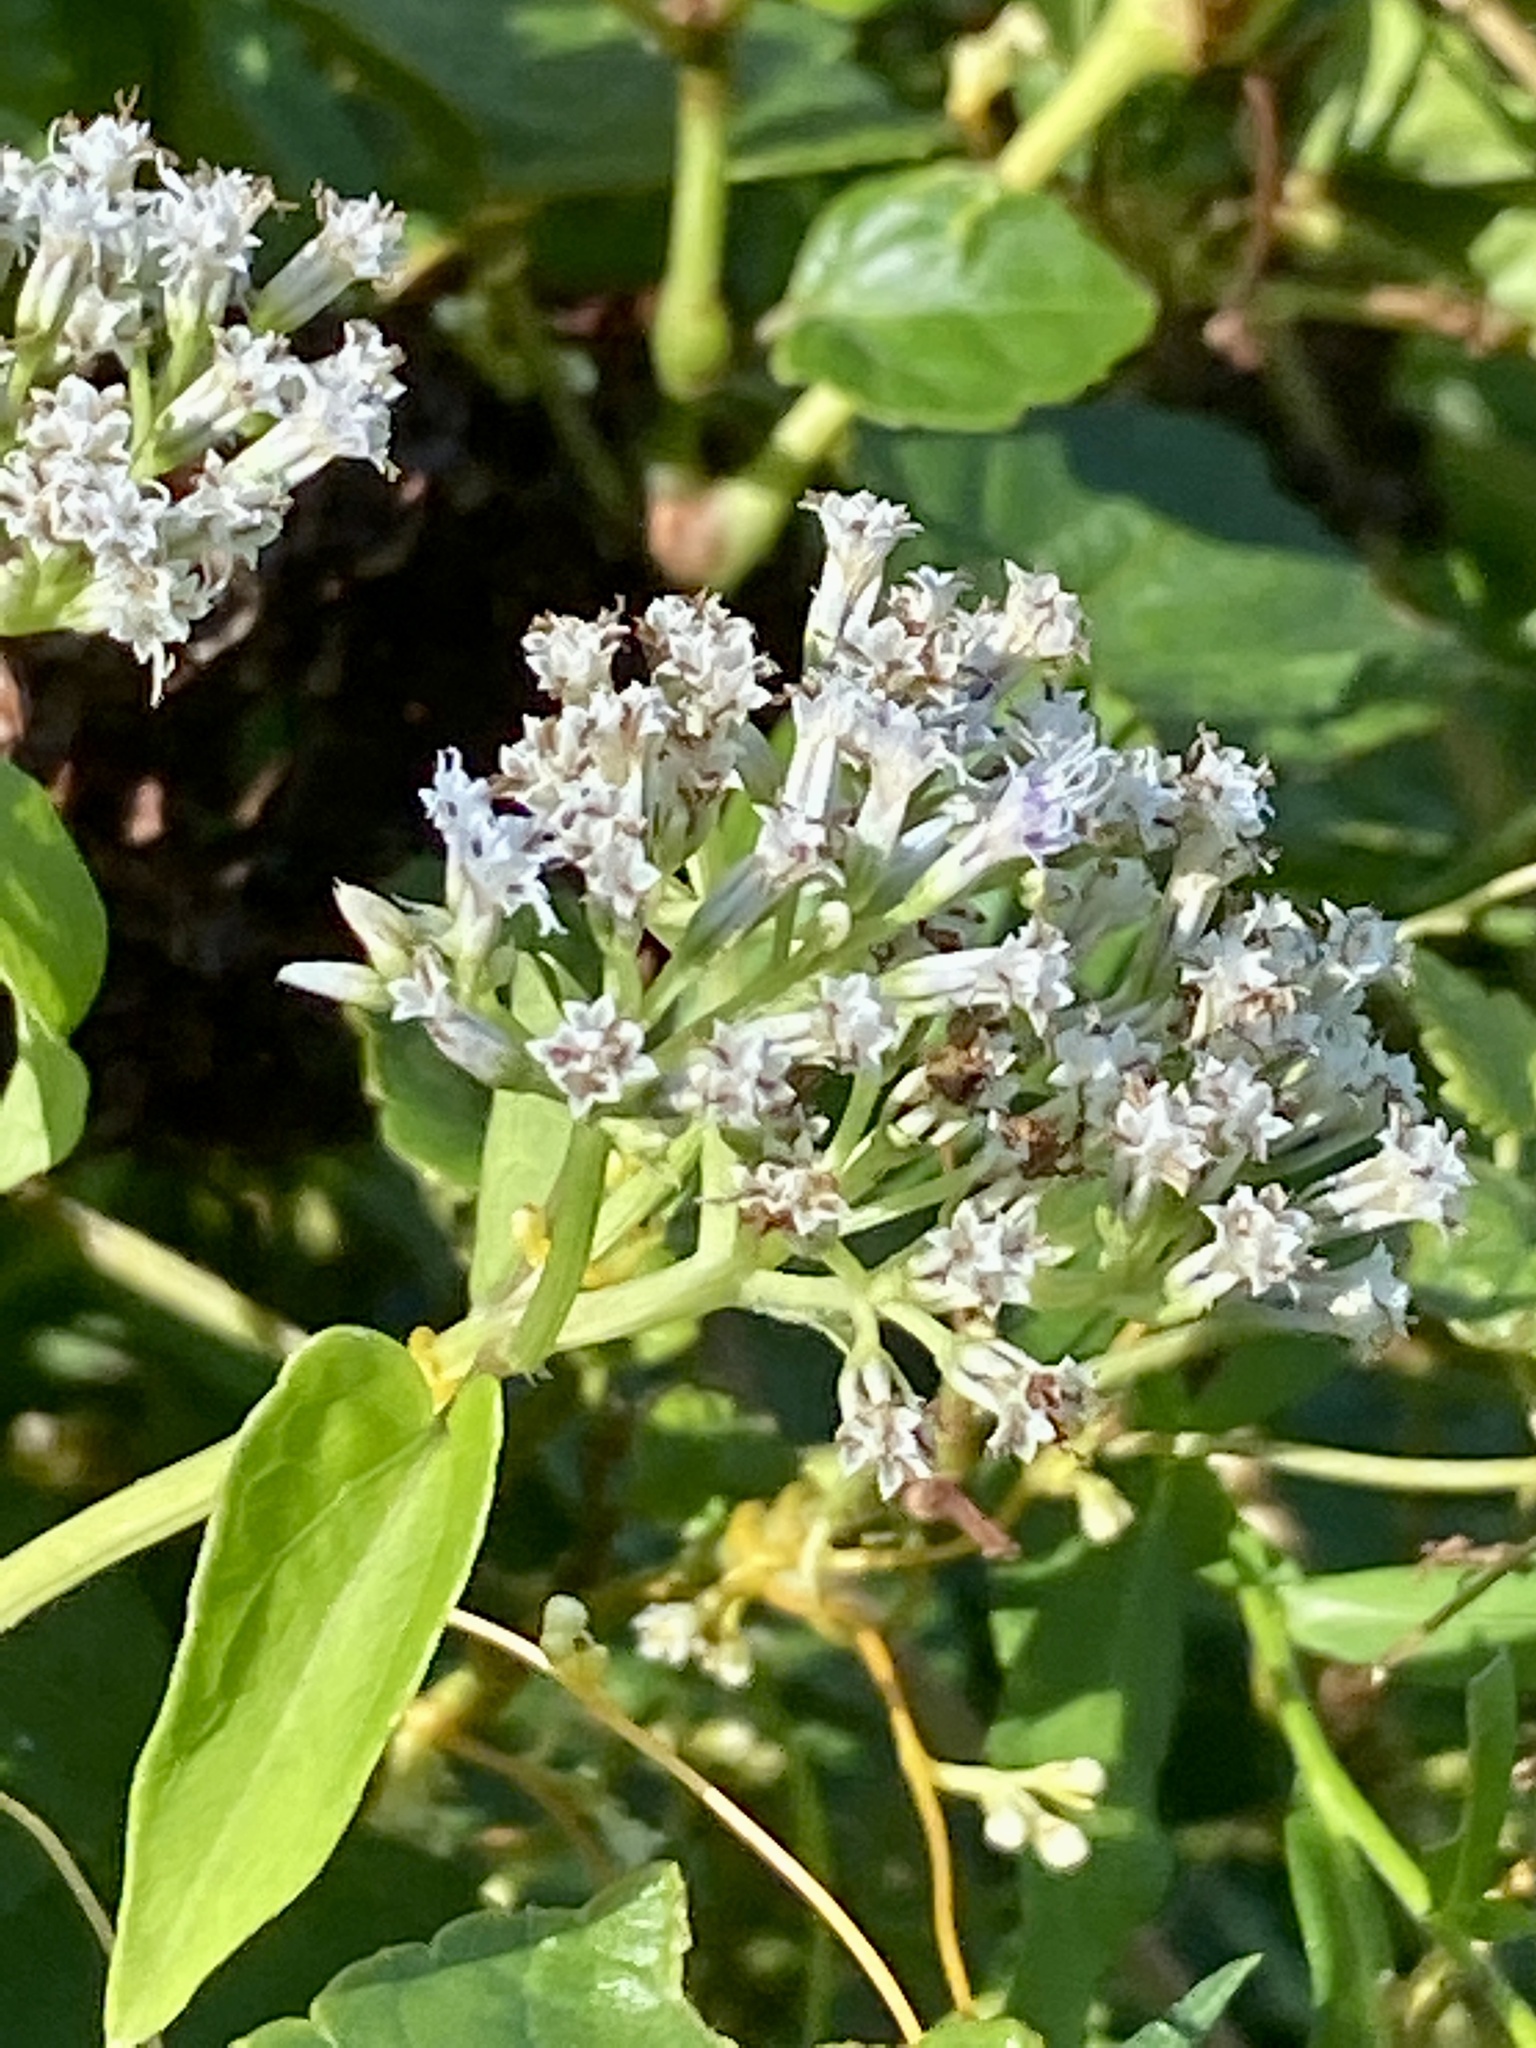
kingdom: Plantae
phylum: Tracheophyta
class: Magnoliopsida
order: Asterales
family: Asteraceae
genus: Mikania
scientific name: Mikania scandens
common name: Climbing hempvine
